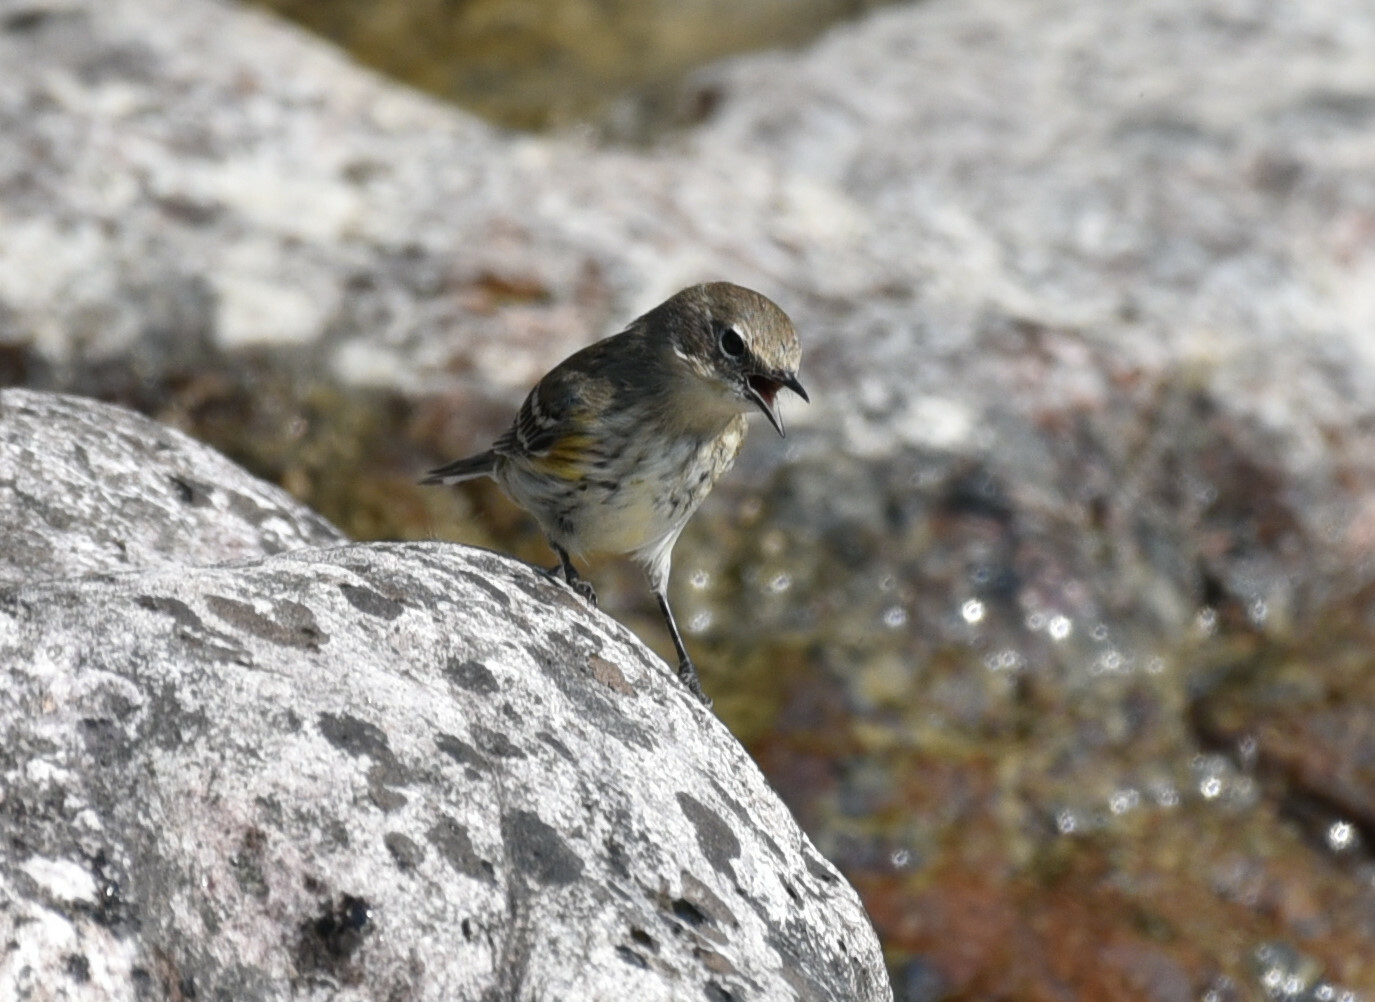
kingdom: Animalia
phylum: Chordata
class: Aves
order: Passeriformes
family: Parulidae
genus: Setophaga
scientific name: Setophaga coronata
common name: Myrtle warbler
